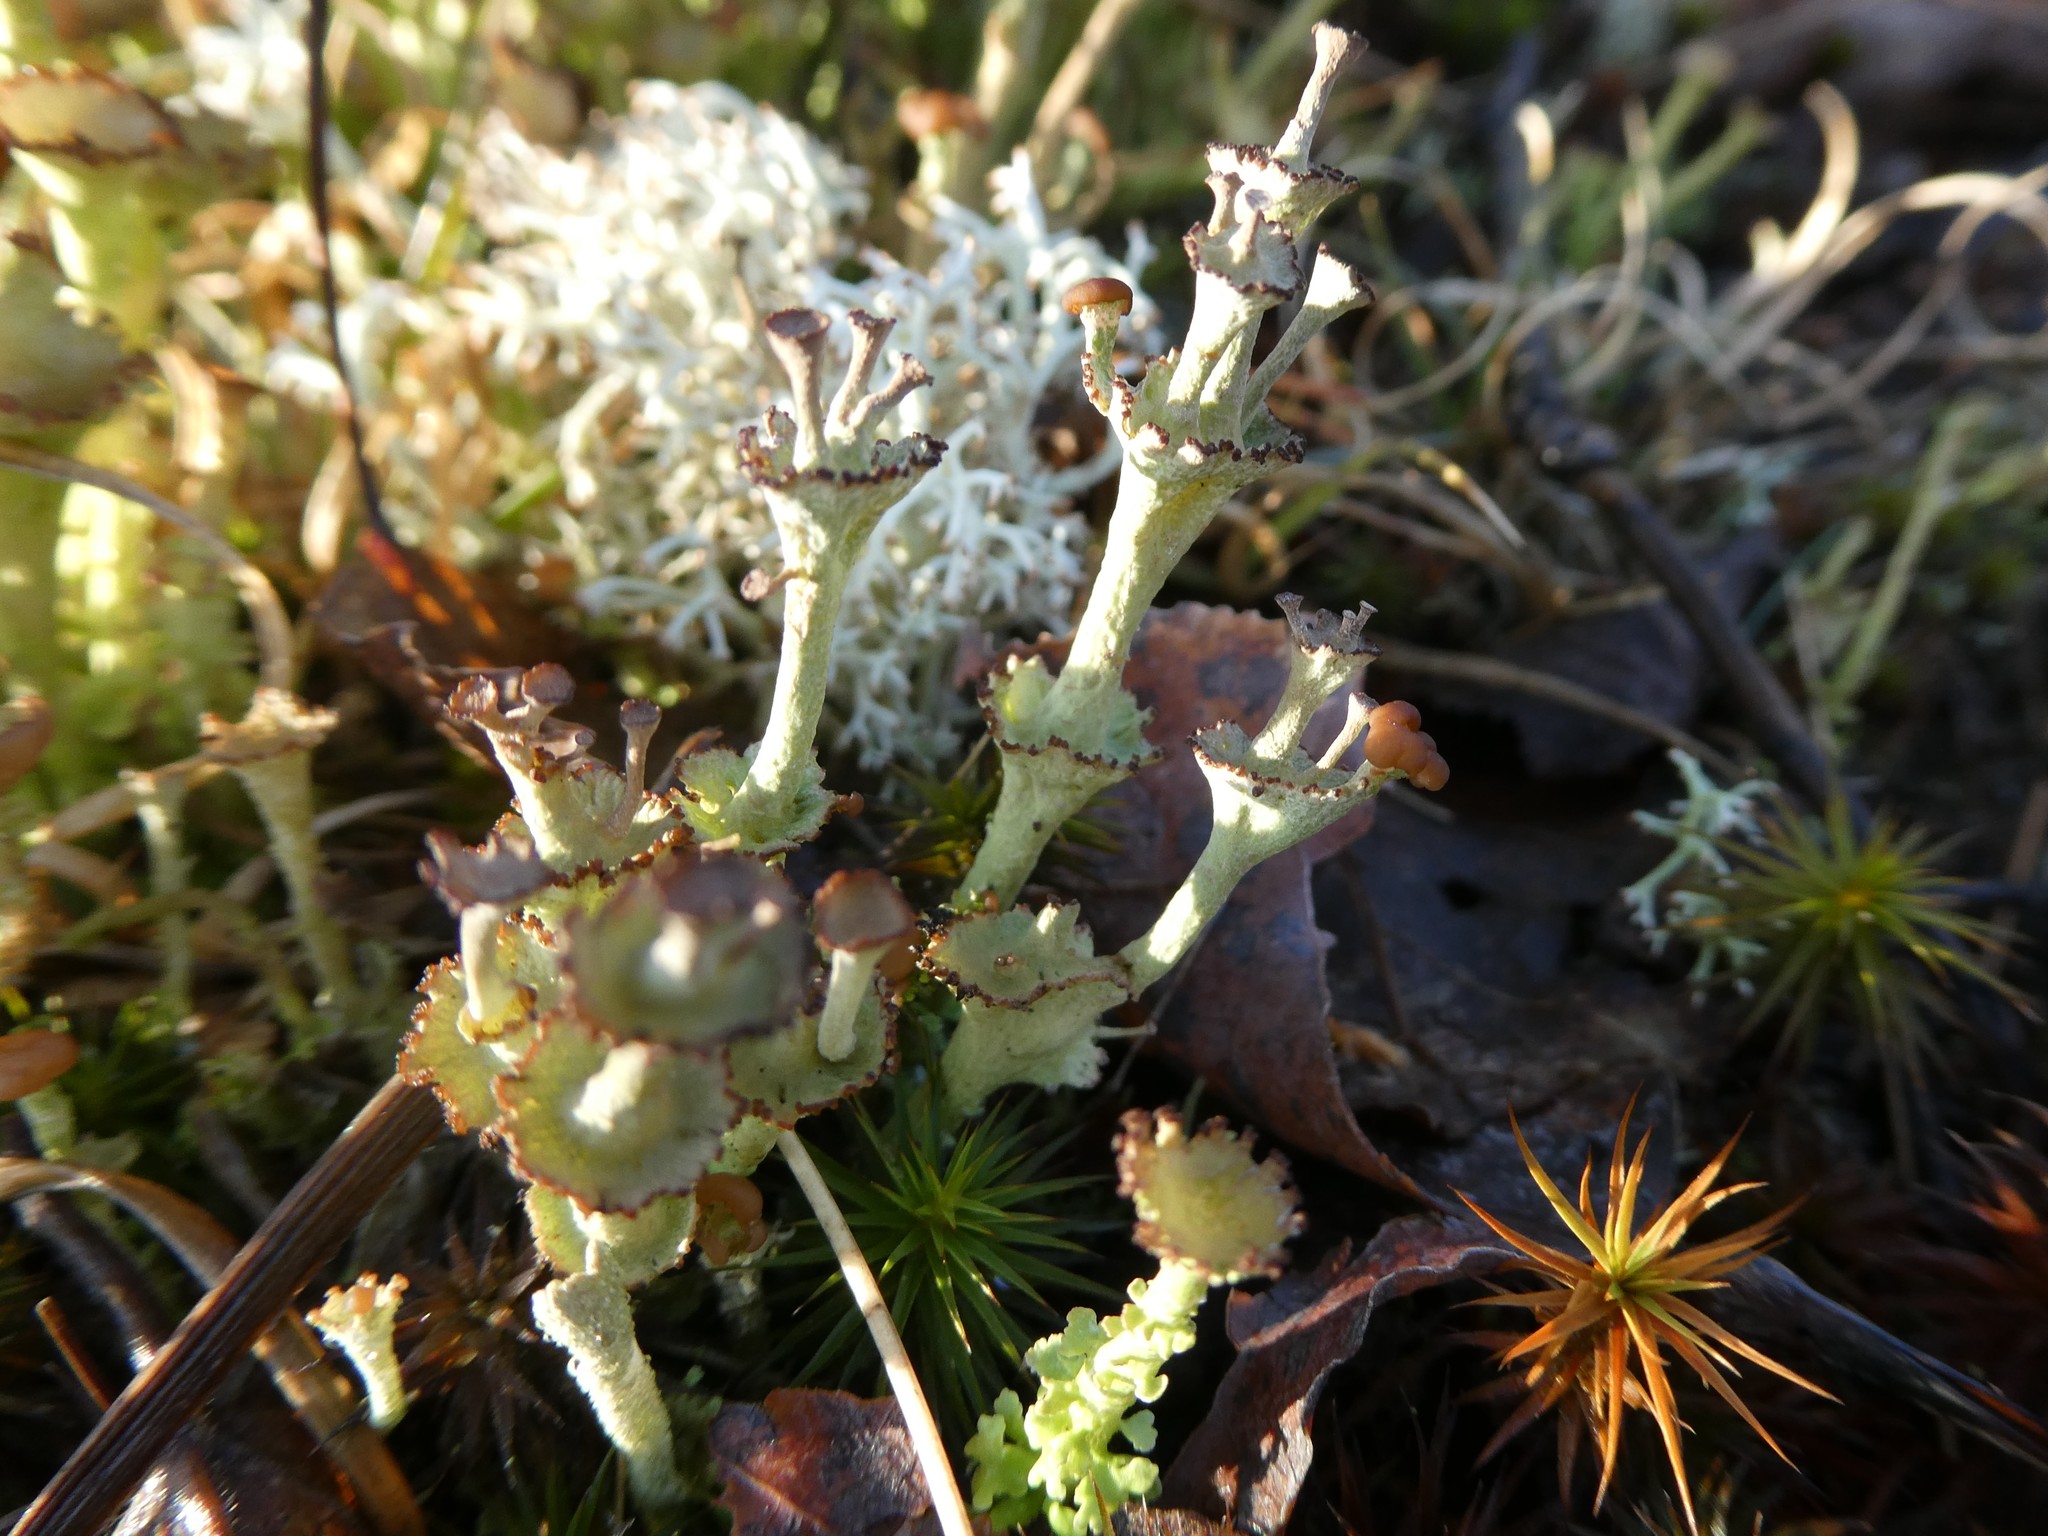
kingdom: Fungi
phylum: Ascomycota
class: Lecanoromycetes
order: Lecanorales
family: Cladoniaceae
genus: Cladonia
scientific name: Cladonia cervicornis
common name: Browned pixie-cup lichen
